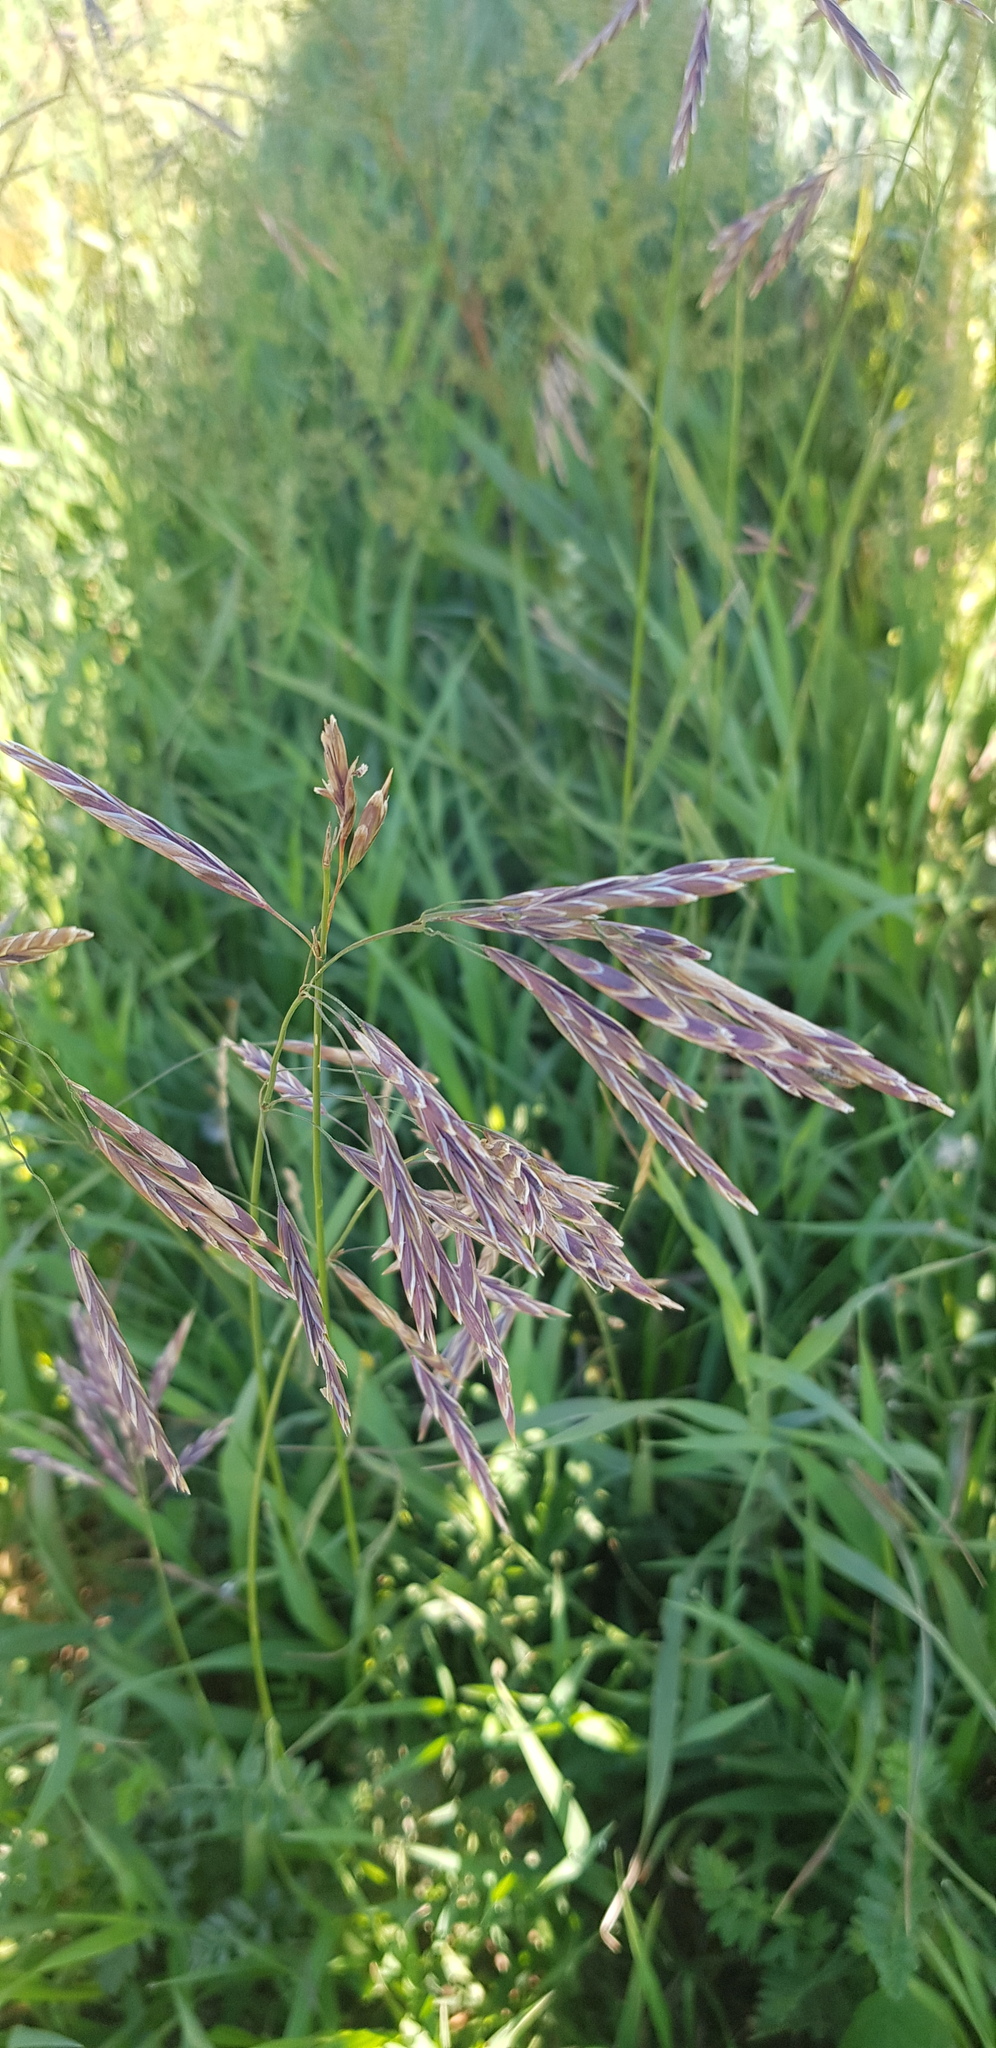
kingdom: Plantae
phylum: Tracheophyta
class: Liliopsida
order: Poales
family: Poaceae
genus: Bromus
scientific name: Bromus inermis
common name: Smooth brome
